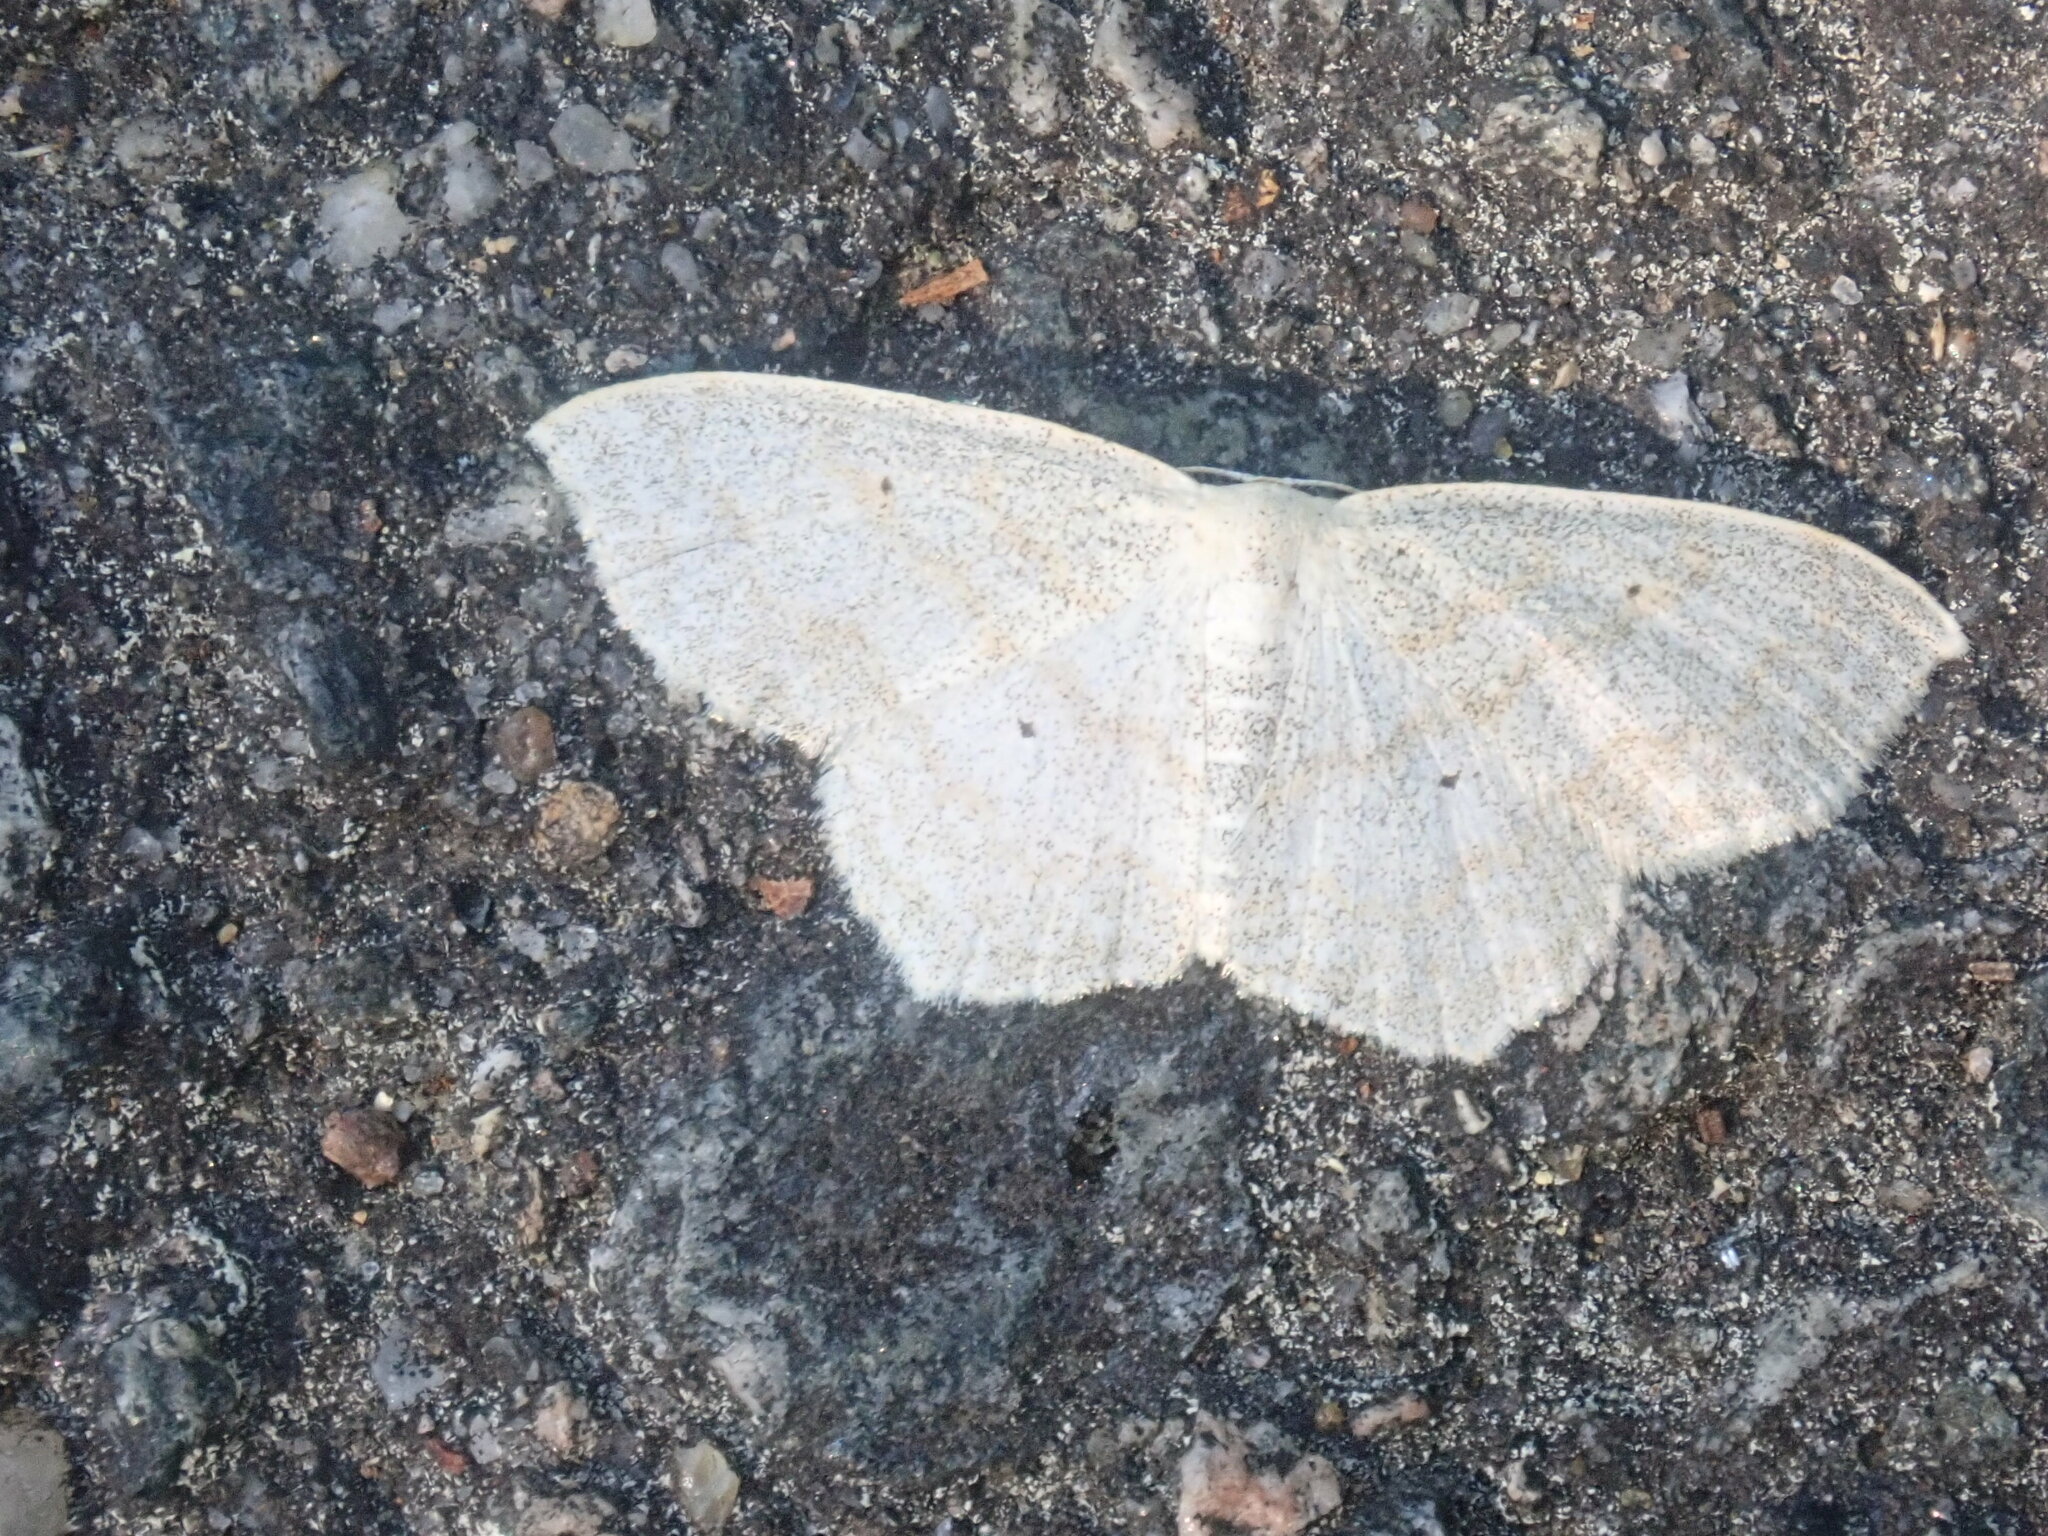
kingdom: Animalia
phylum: Arthropoda
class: Insecta
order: Lepidoptera
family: Geometridae
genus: Scopula
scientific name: Scopula inductata
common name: Soft-lined wave
